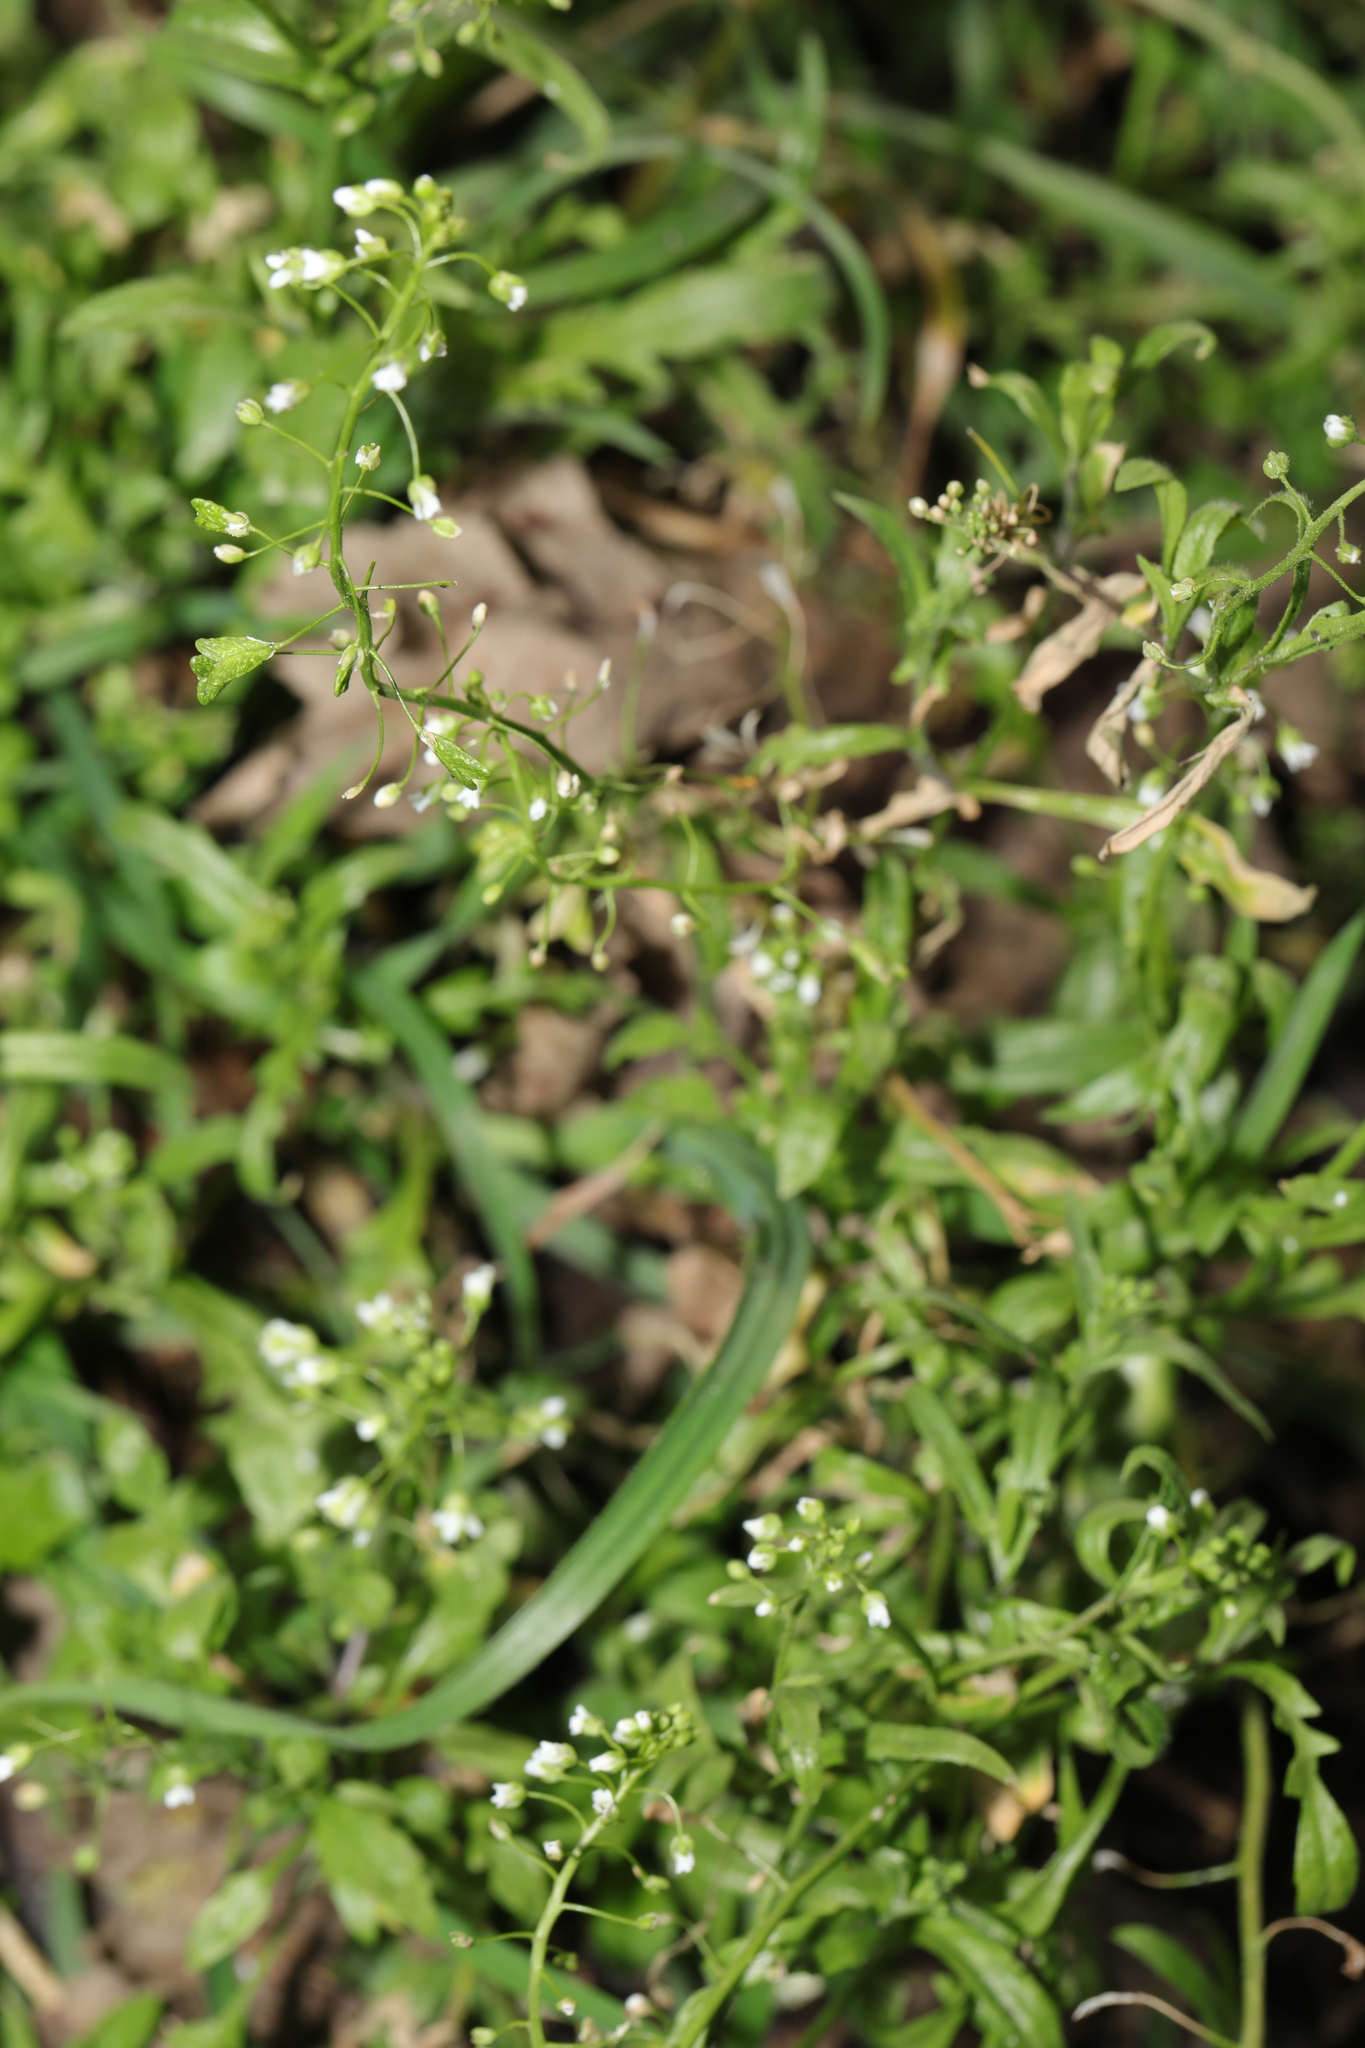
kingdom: Plantae
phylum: Tracheophyta
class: Magnoliopsida
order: Brassicales
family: Brassicaceae
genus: Capsella
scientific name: Capsella bursa-pastoris
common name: Shepherd's purse
